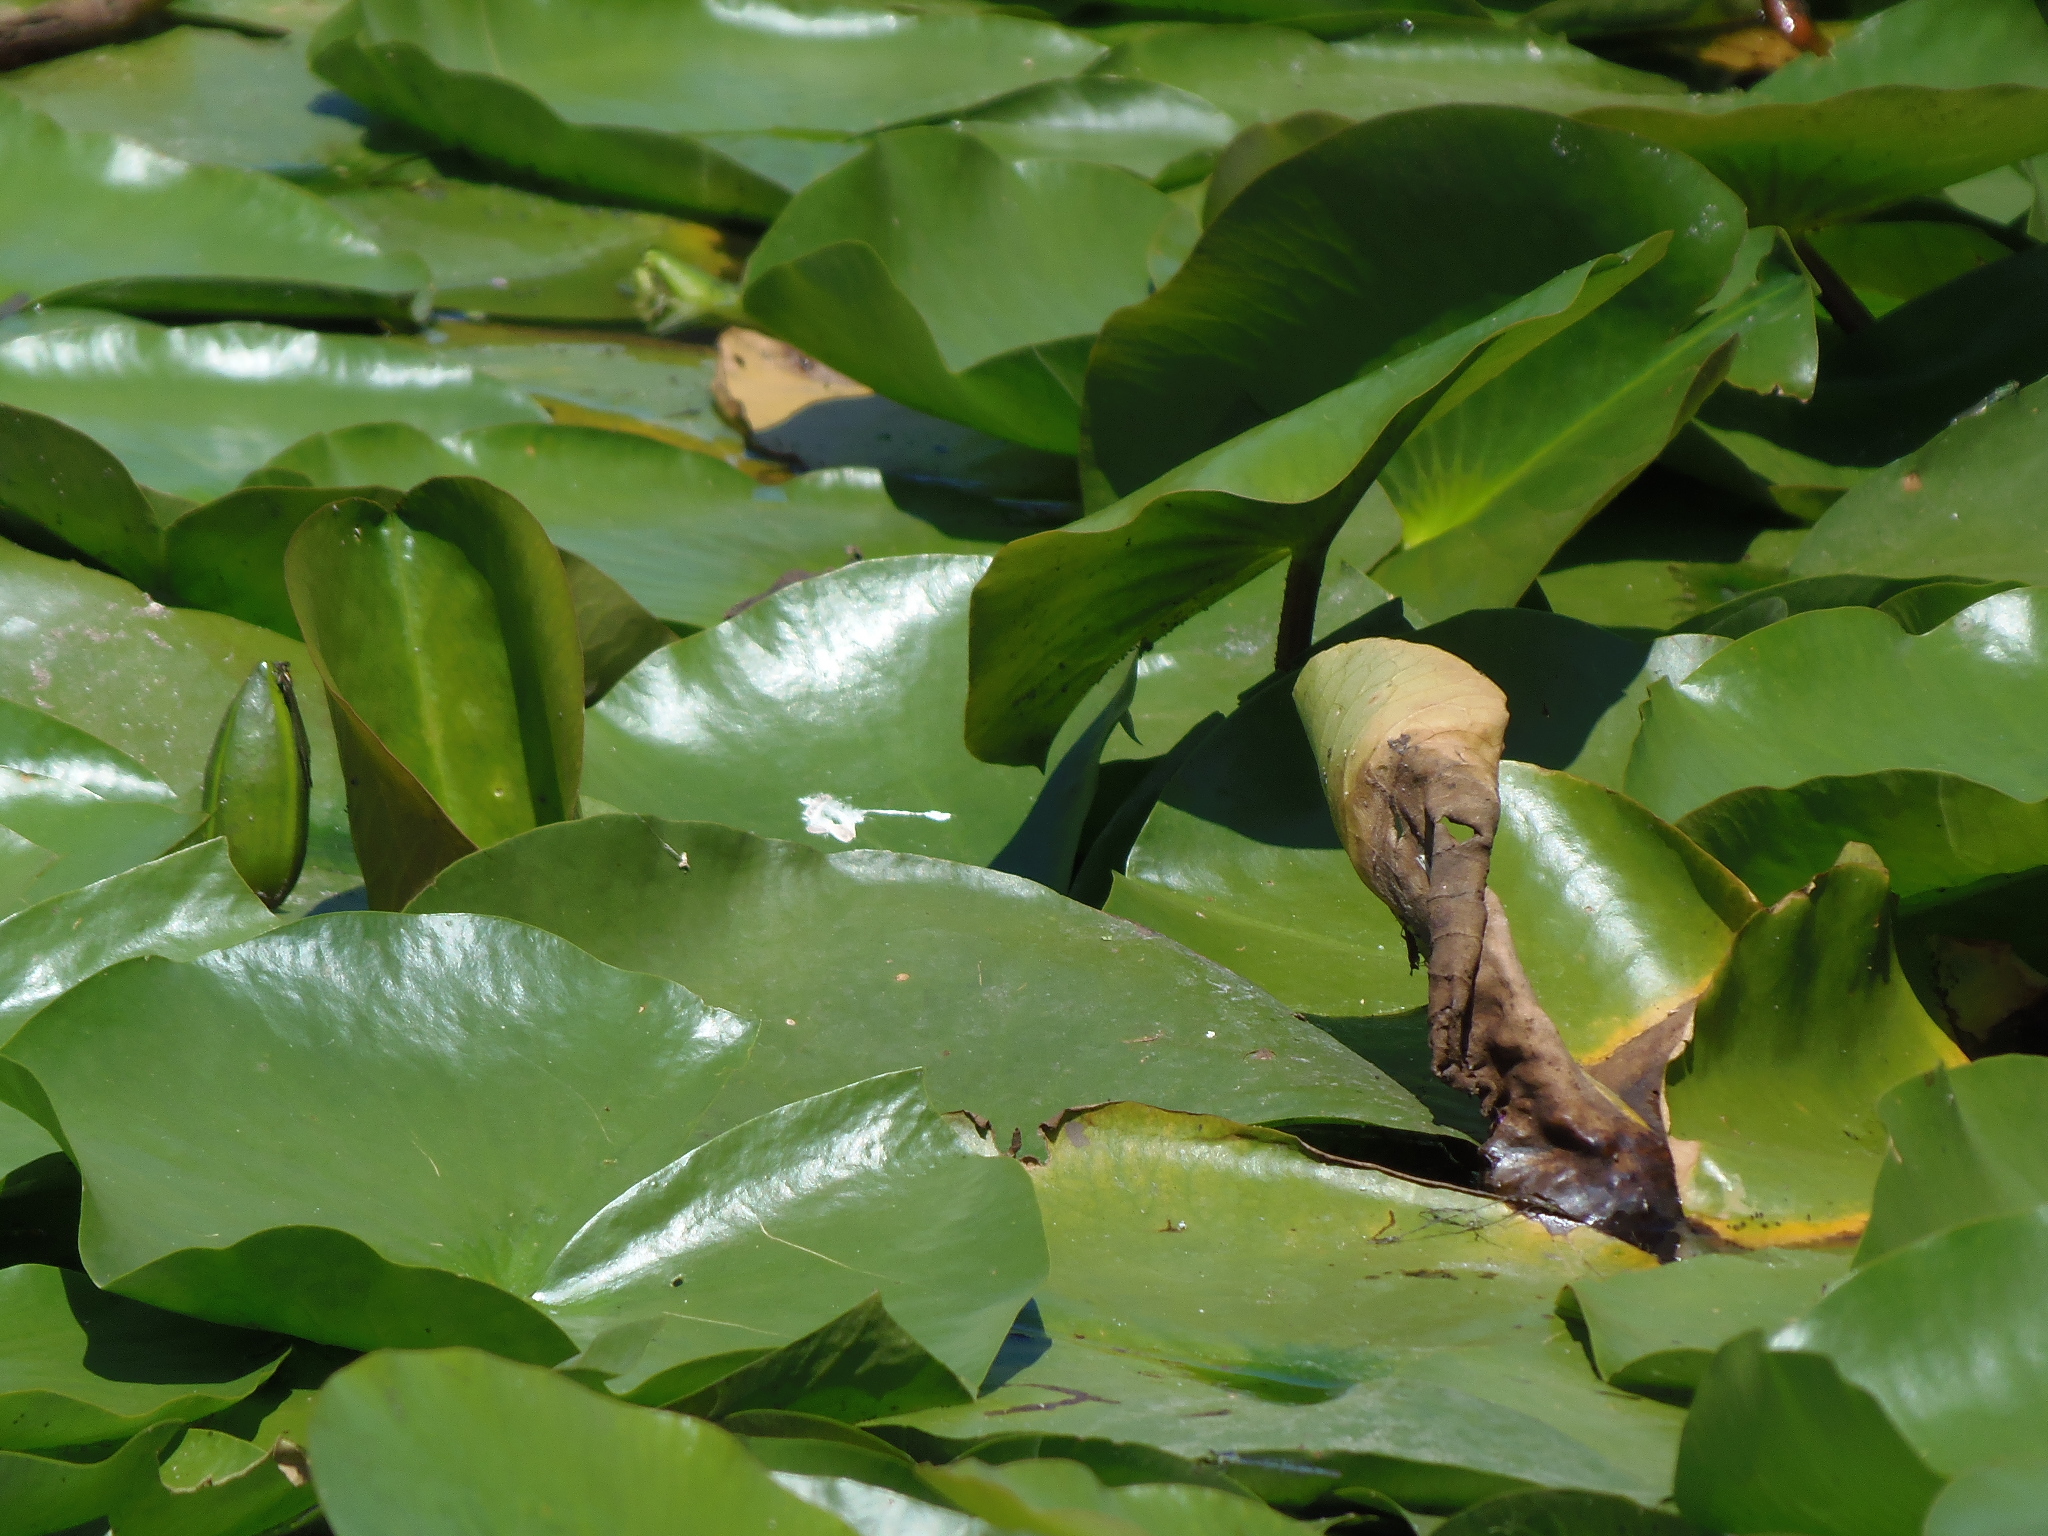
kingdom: Plantae
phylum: Tracheophyta
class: Magnoliopsida
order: Nymphaeales
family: Nymphaeaceae
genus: Nuphar
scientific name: Nuphar advena
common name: Spatter-dock
